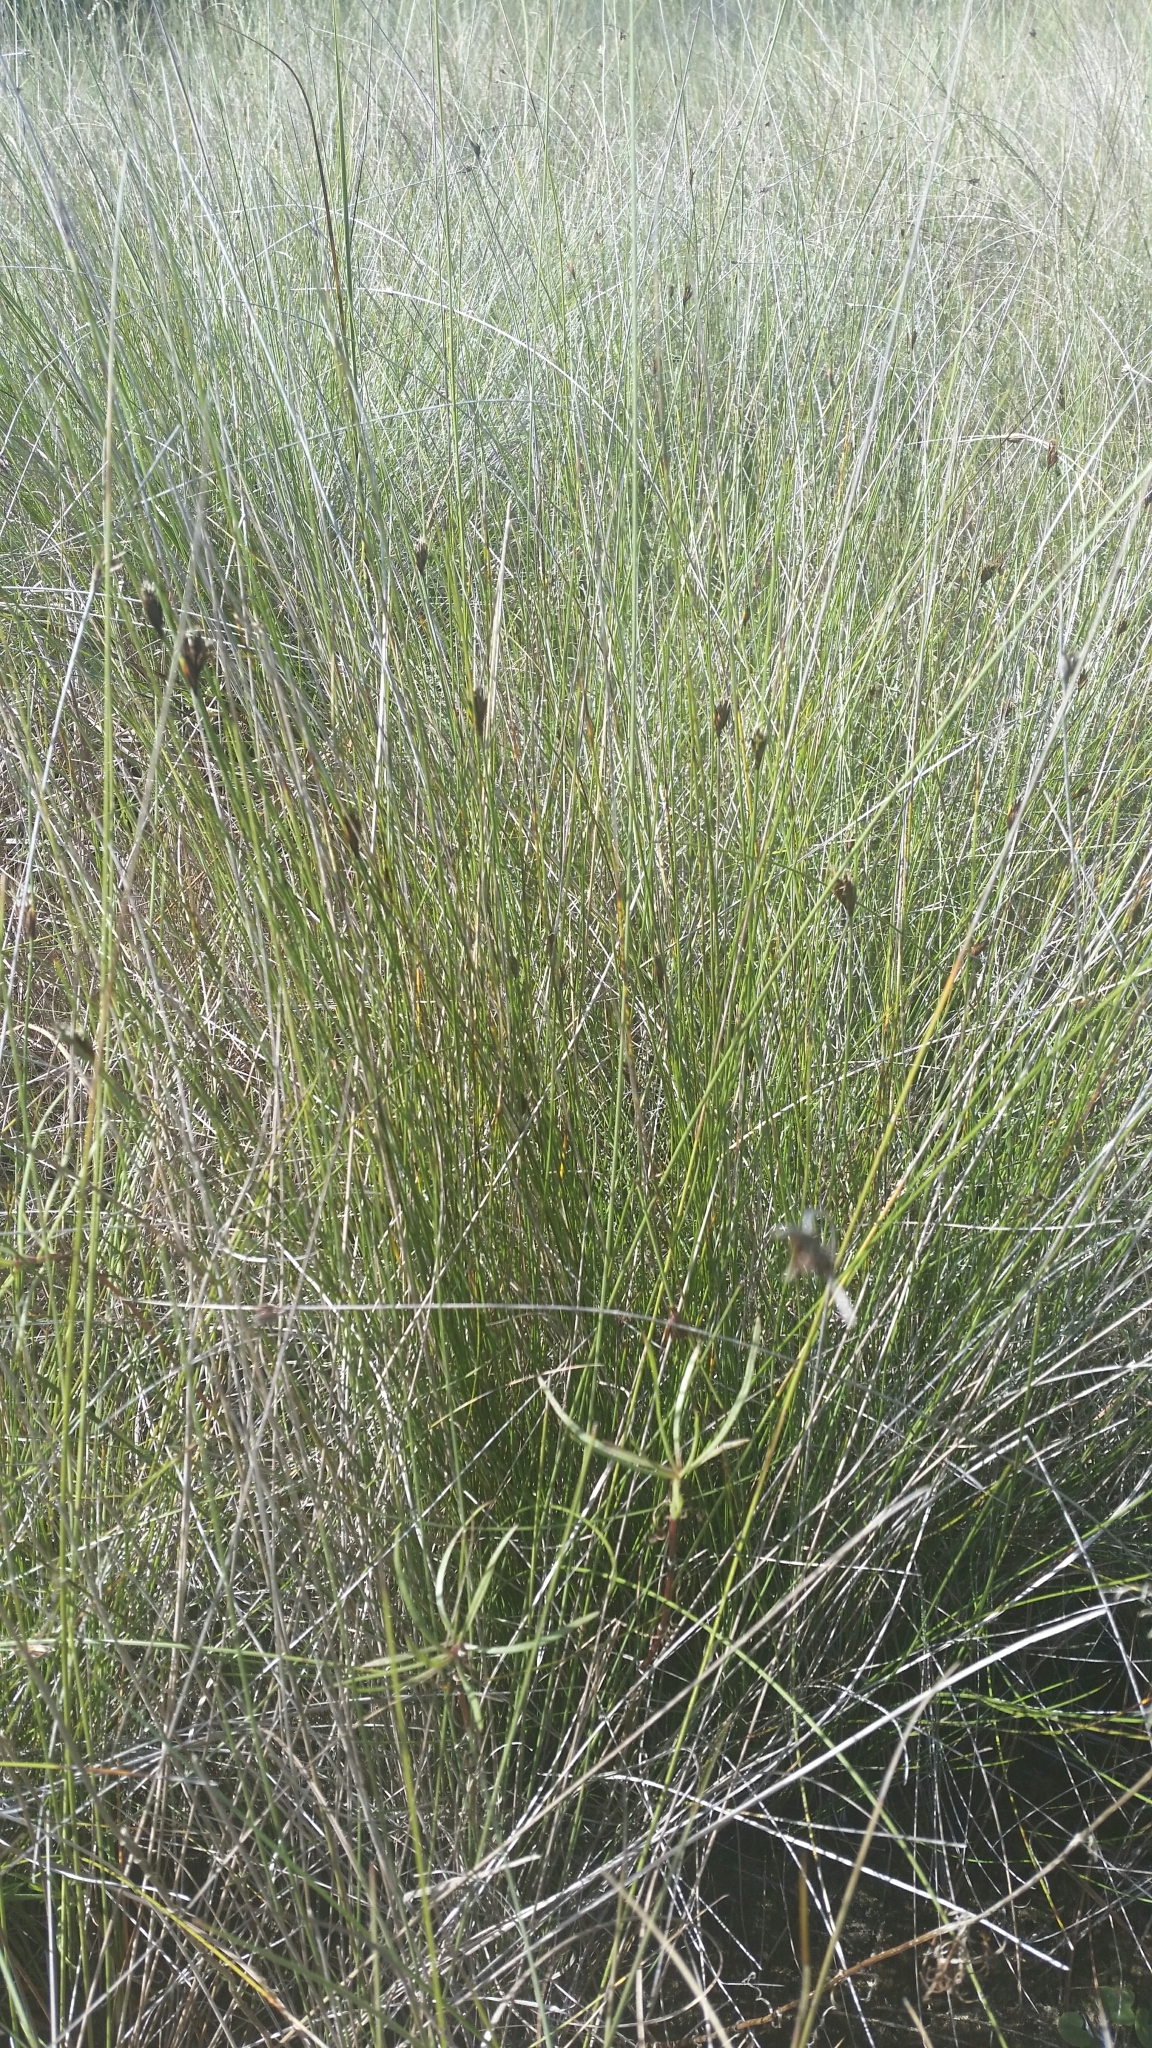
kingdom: Plantae
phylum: Tracheophyta
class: Liliopsida
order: Poales
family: Cyperaceae
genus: Schoenus
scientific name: Schoenus nigricans
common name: Black bog-rush
